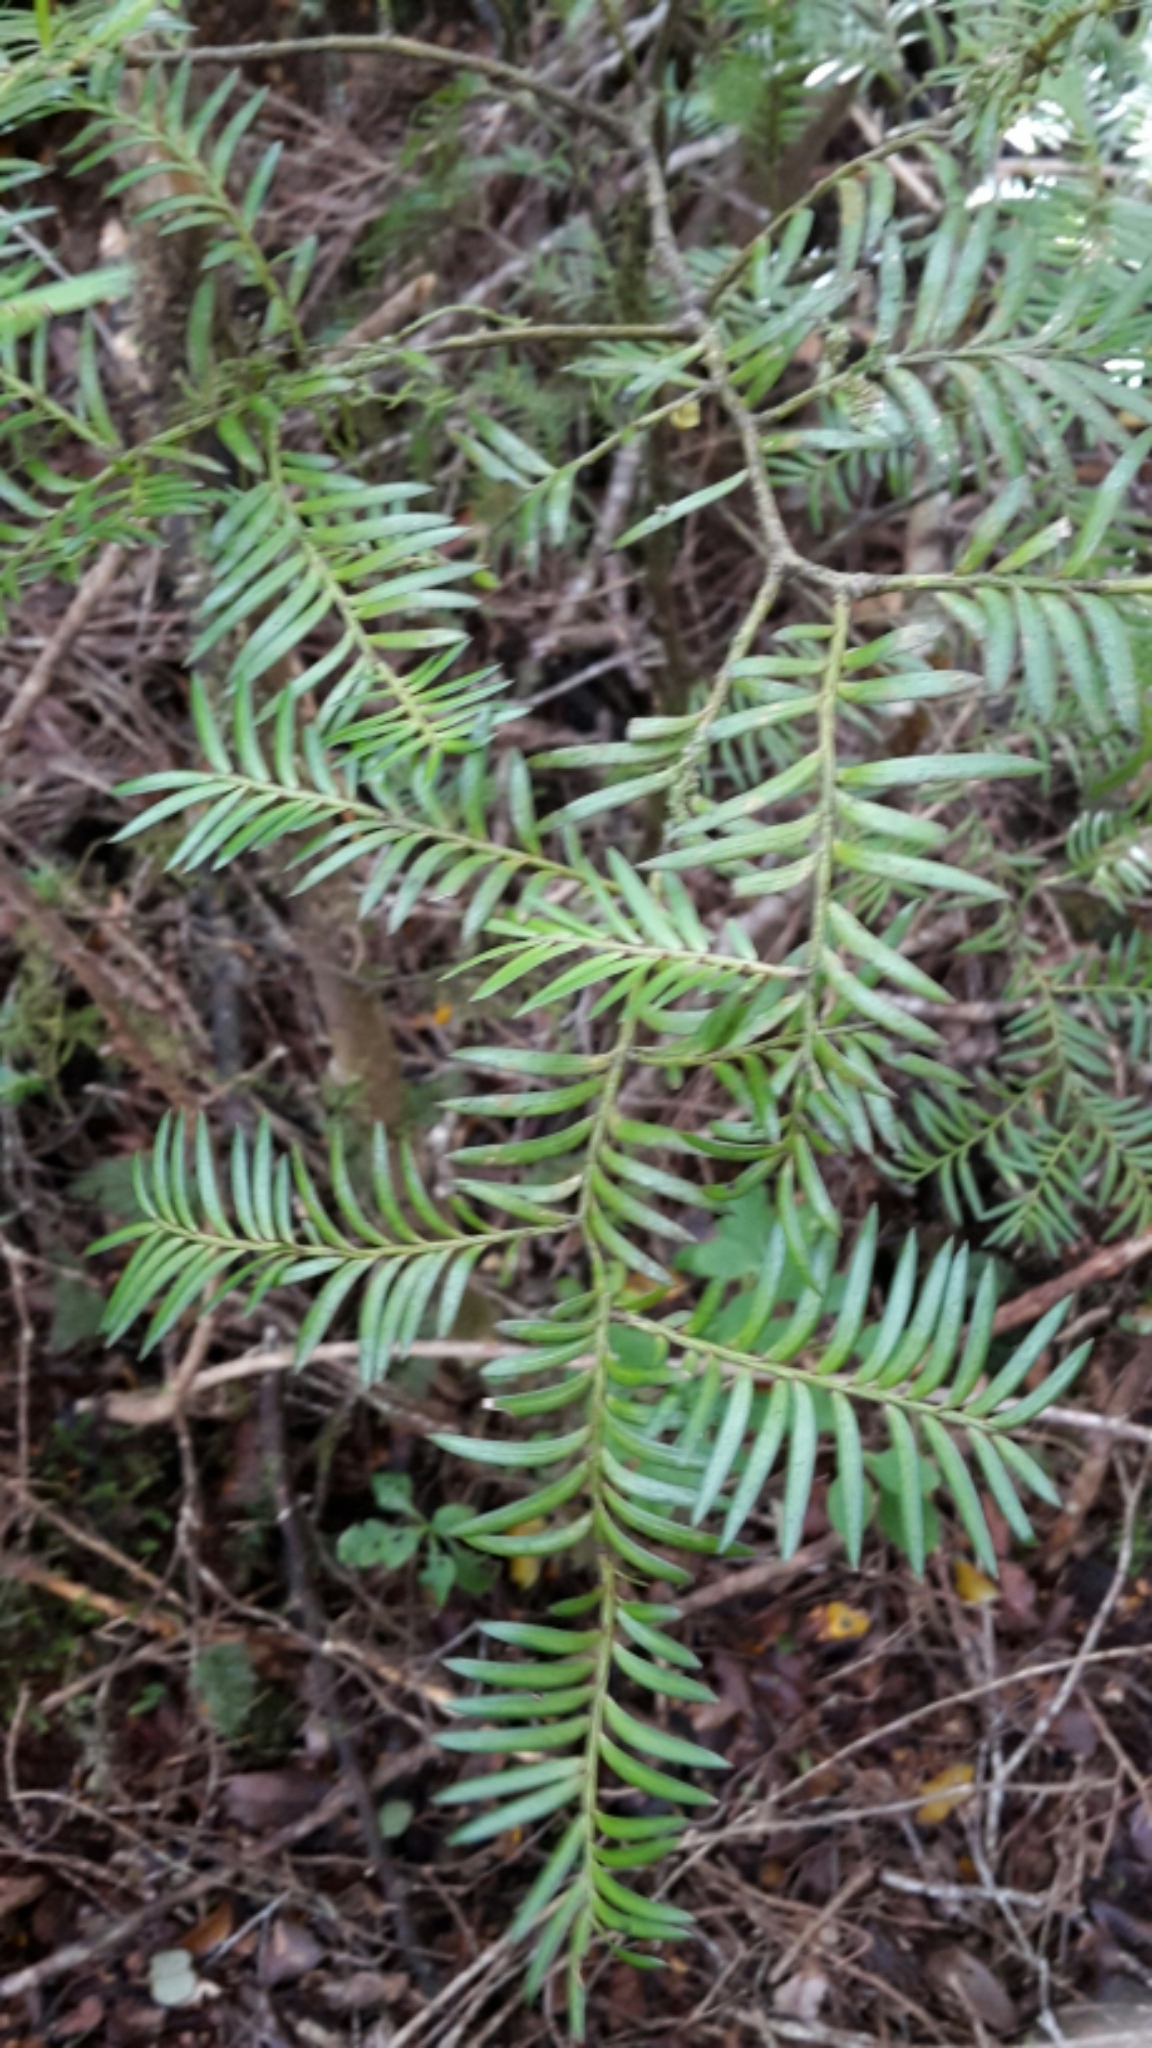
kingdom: Plantae
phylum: Tracheophyta
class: Pinopsida
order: Pinales
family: Podocarpaceae
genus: Prumnopitys
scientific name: Prumnopitys ferruginea
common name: Brown pine
